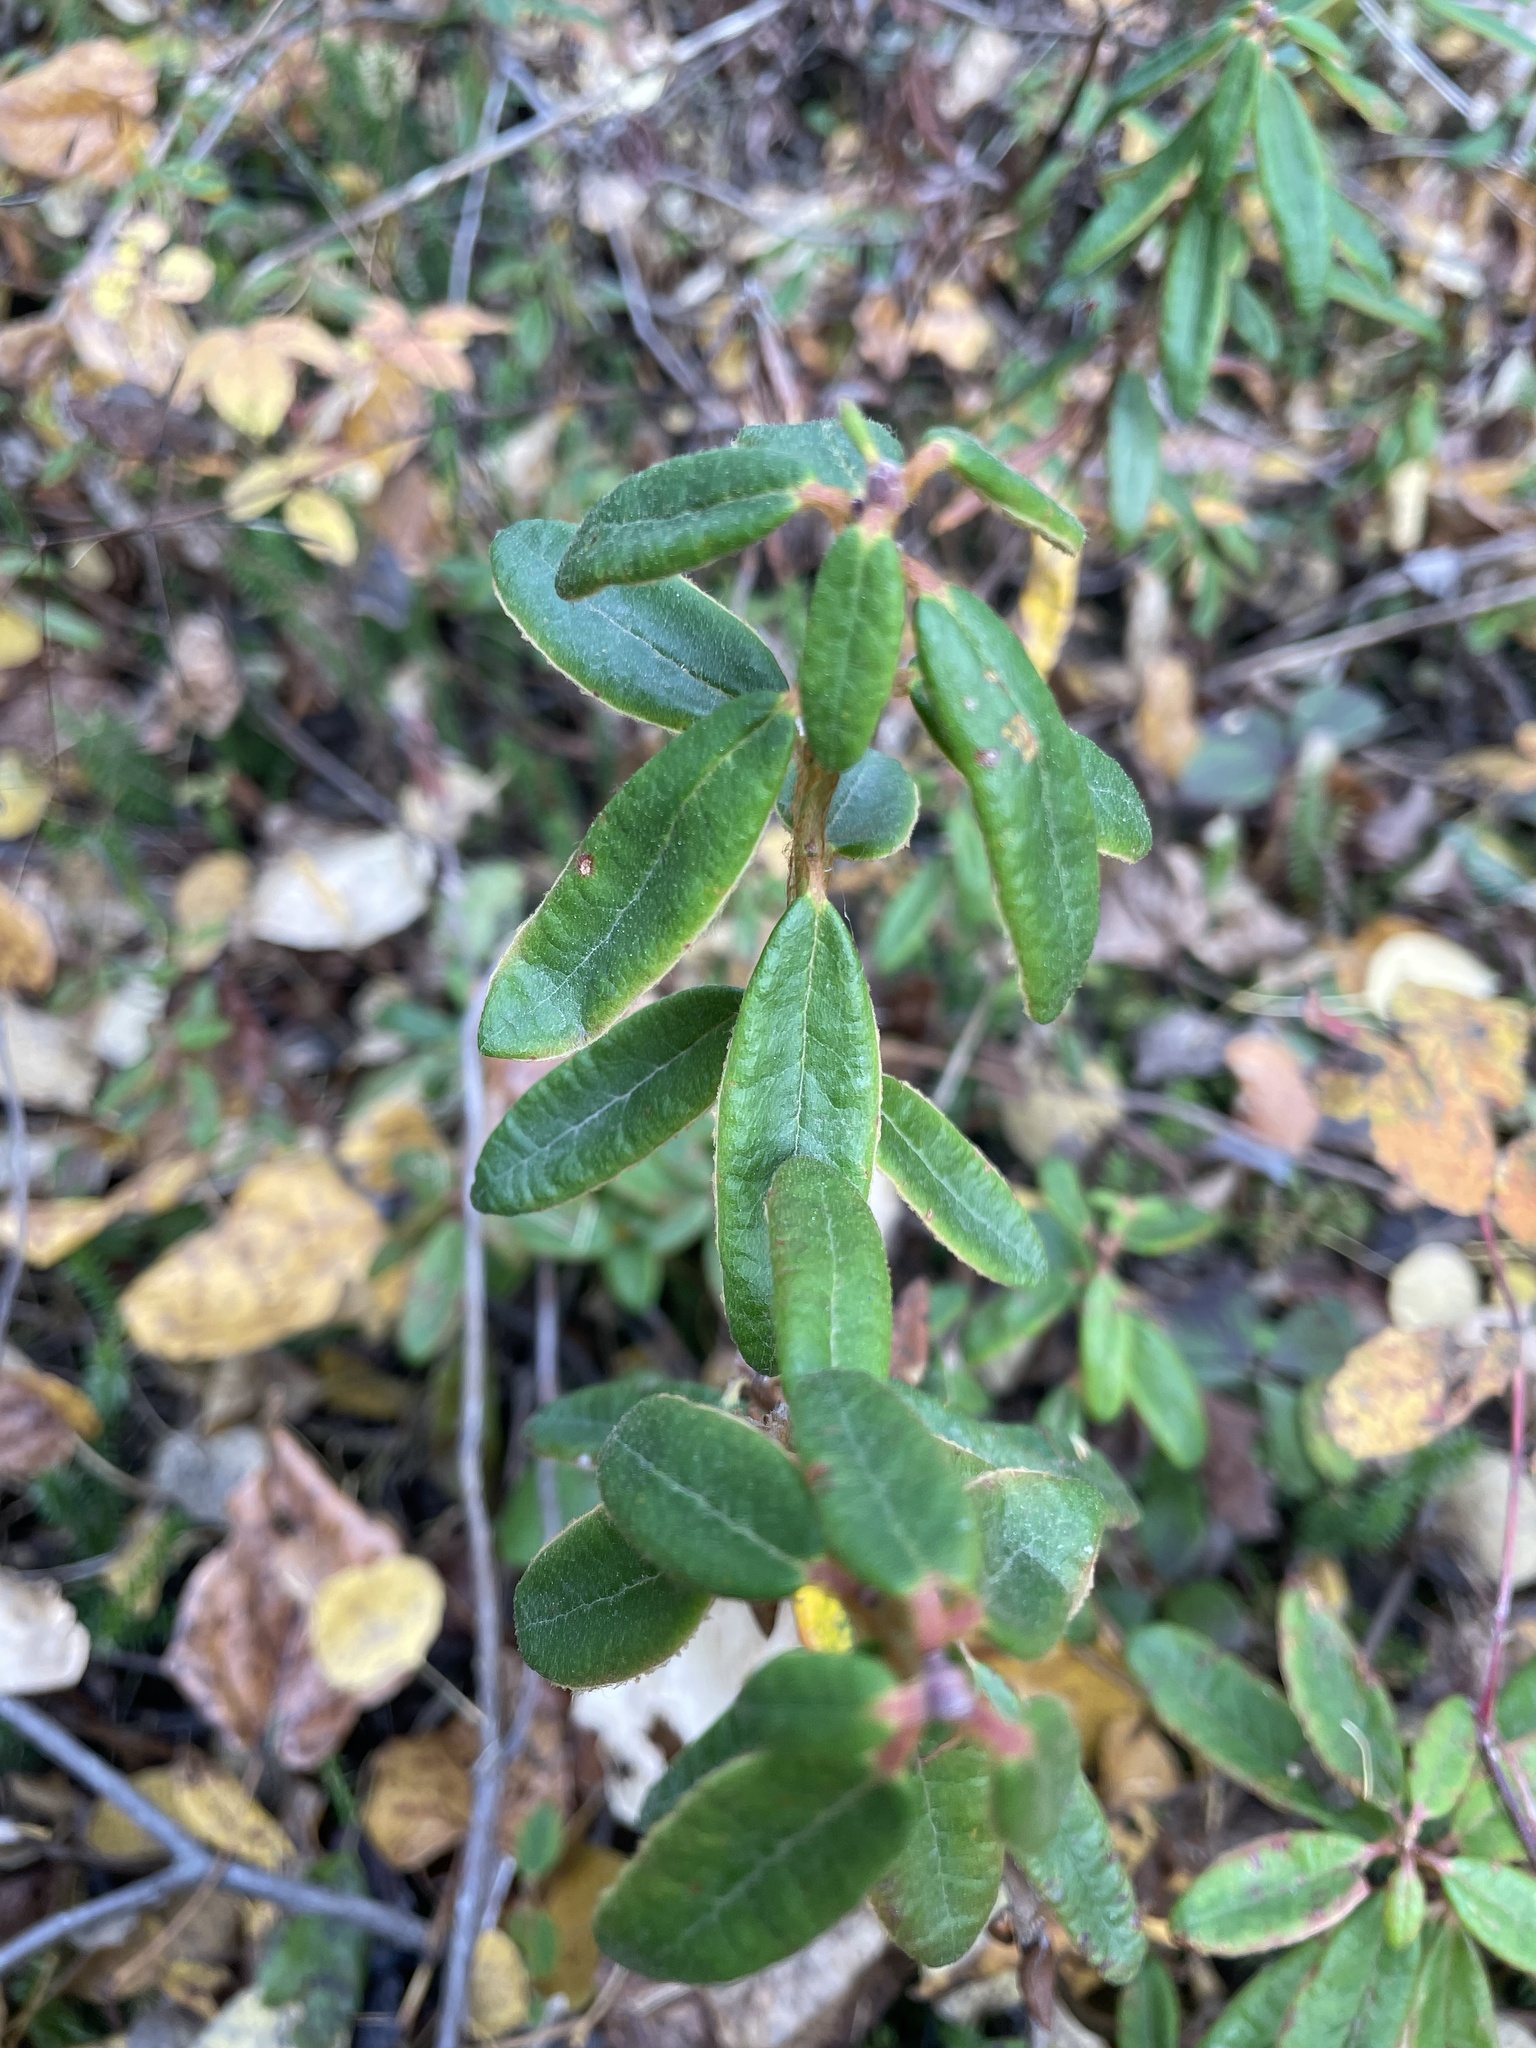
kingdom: Plantae
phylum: Tracheophyta
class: Magnoliopsida
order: Ericales
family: Ericaceae
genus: Rhododendron
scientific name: Rhododendron groenlandicum
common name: Bog labrador tea
